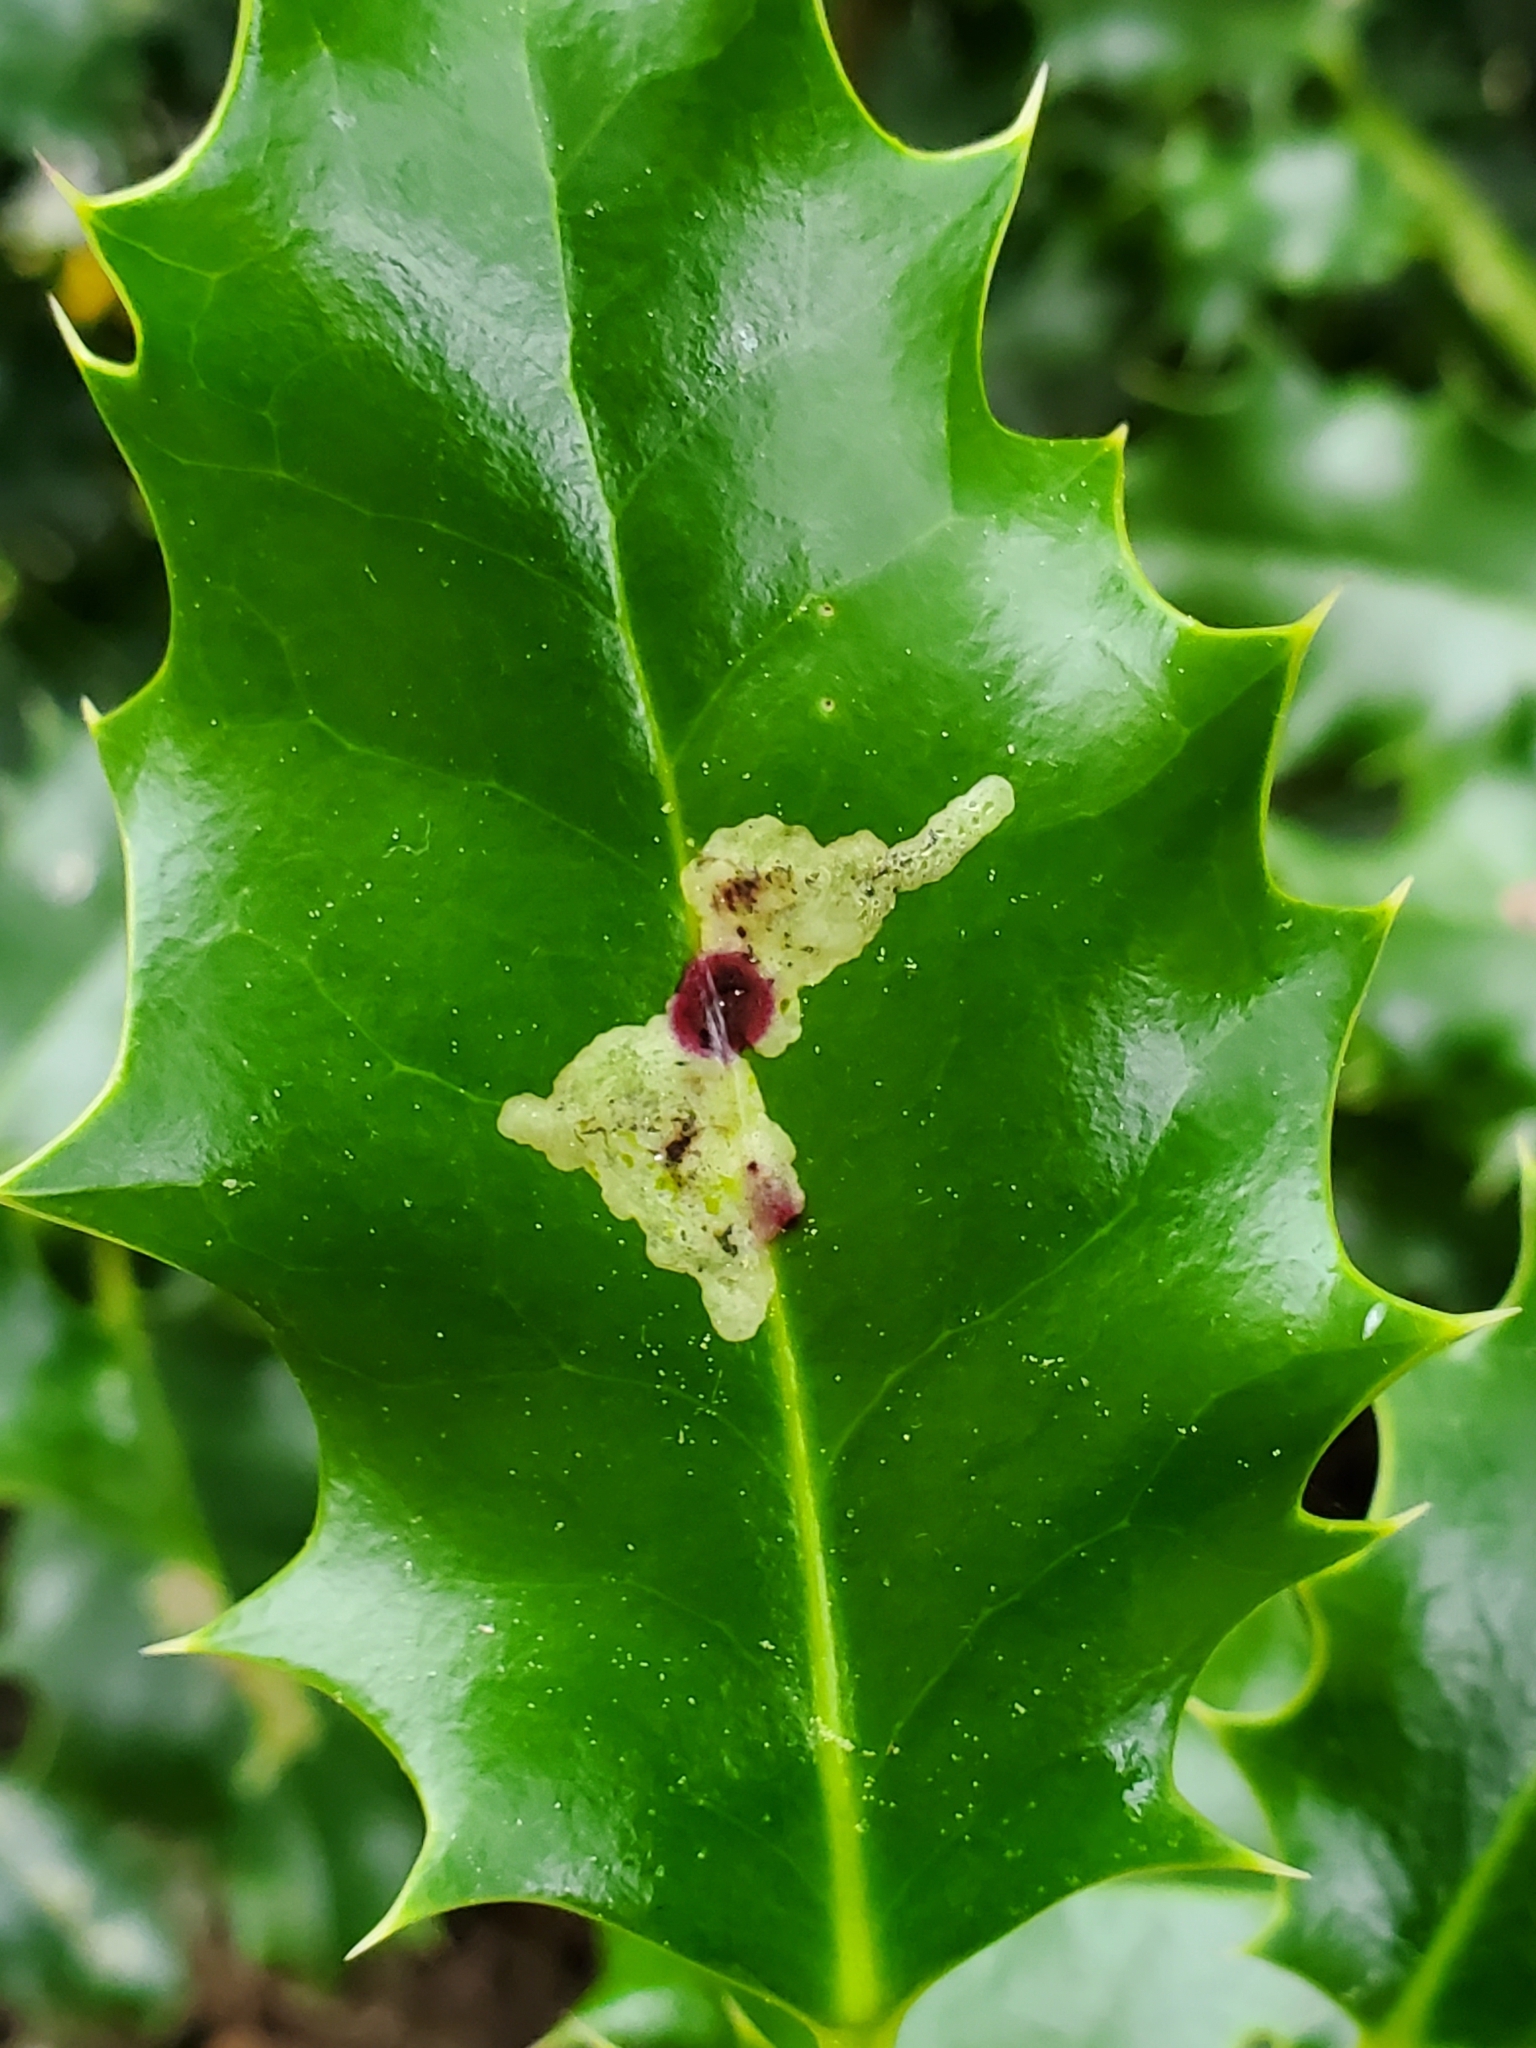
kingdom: Animalia
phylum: Arthropoda
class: Insecta
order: Diptera
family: Agromyzidae
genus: Phytomyza
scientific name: Phytomyza ilicis
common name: Holly leafminer
